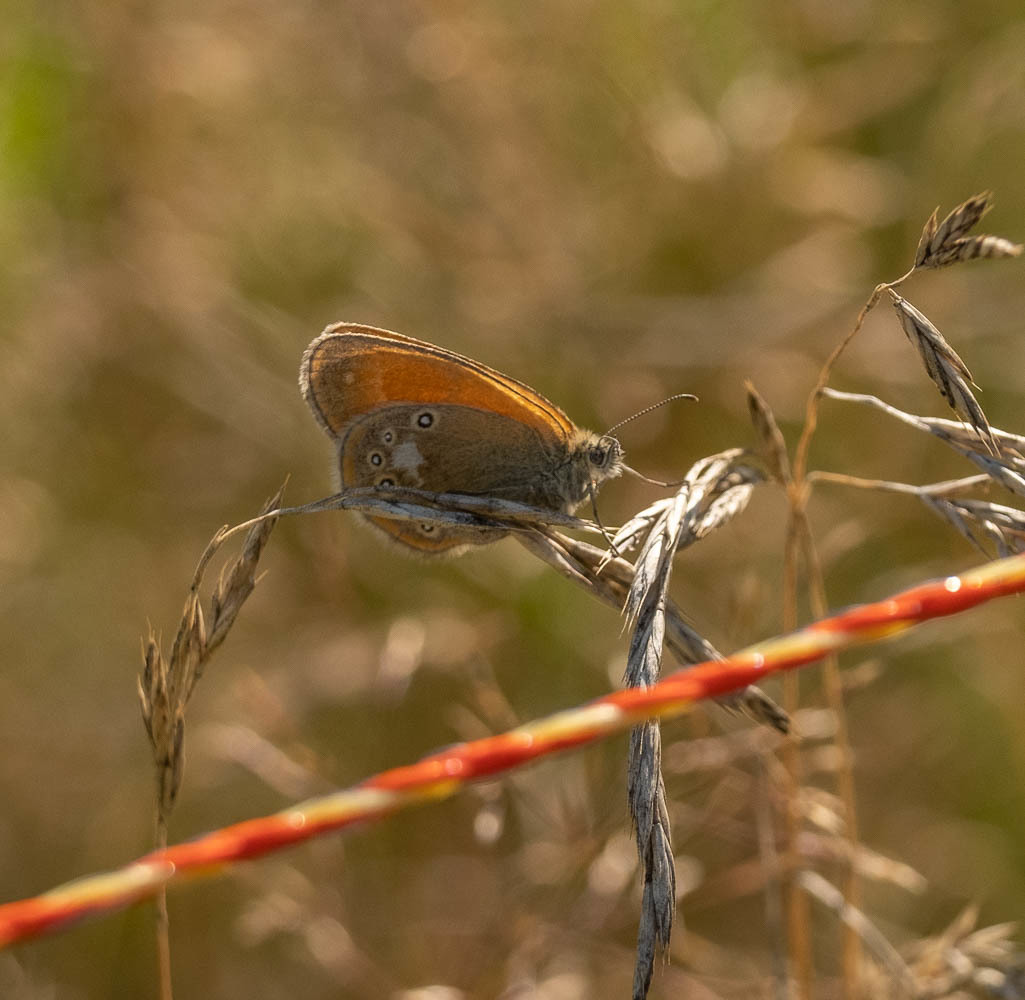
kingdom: Animalia
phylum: Arthropoda
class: Insecta
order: Lepidoptera
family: Nymphalidae
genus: Coenonympha
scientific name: Coenonympha iphis
